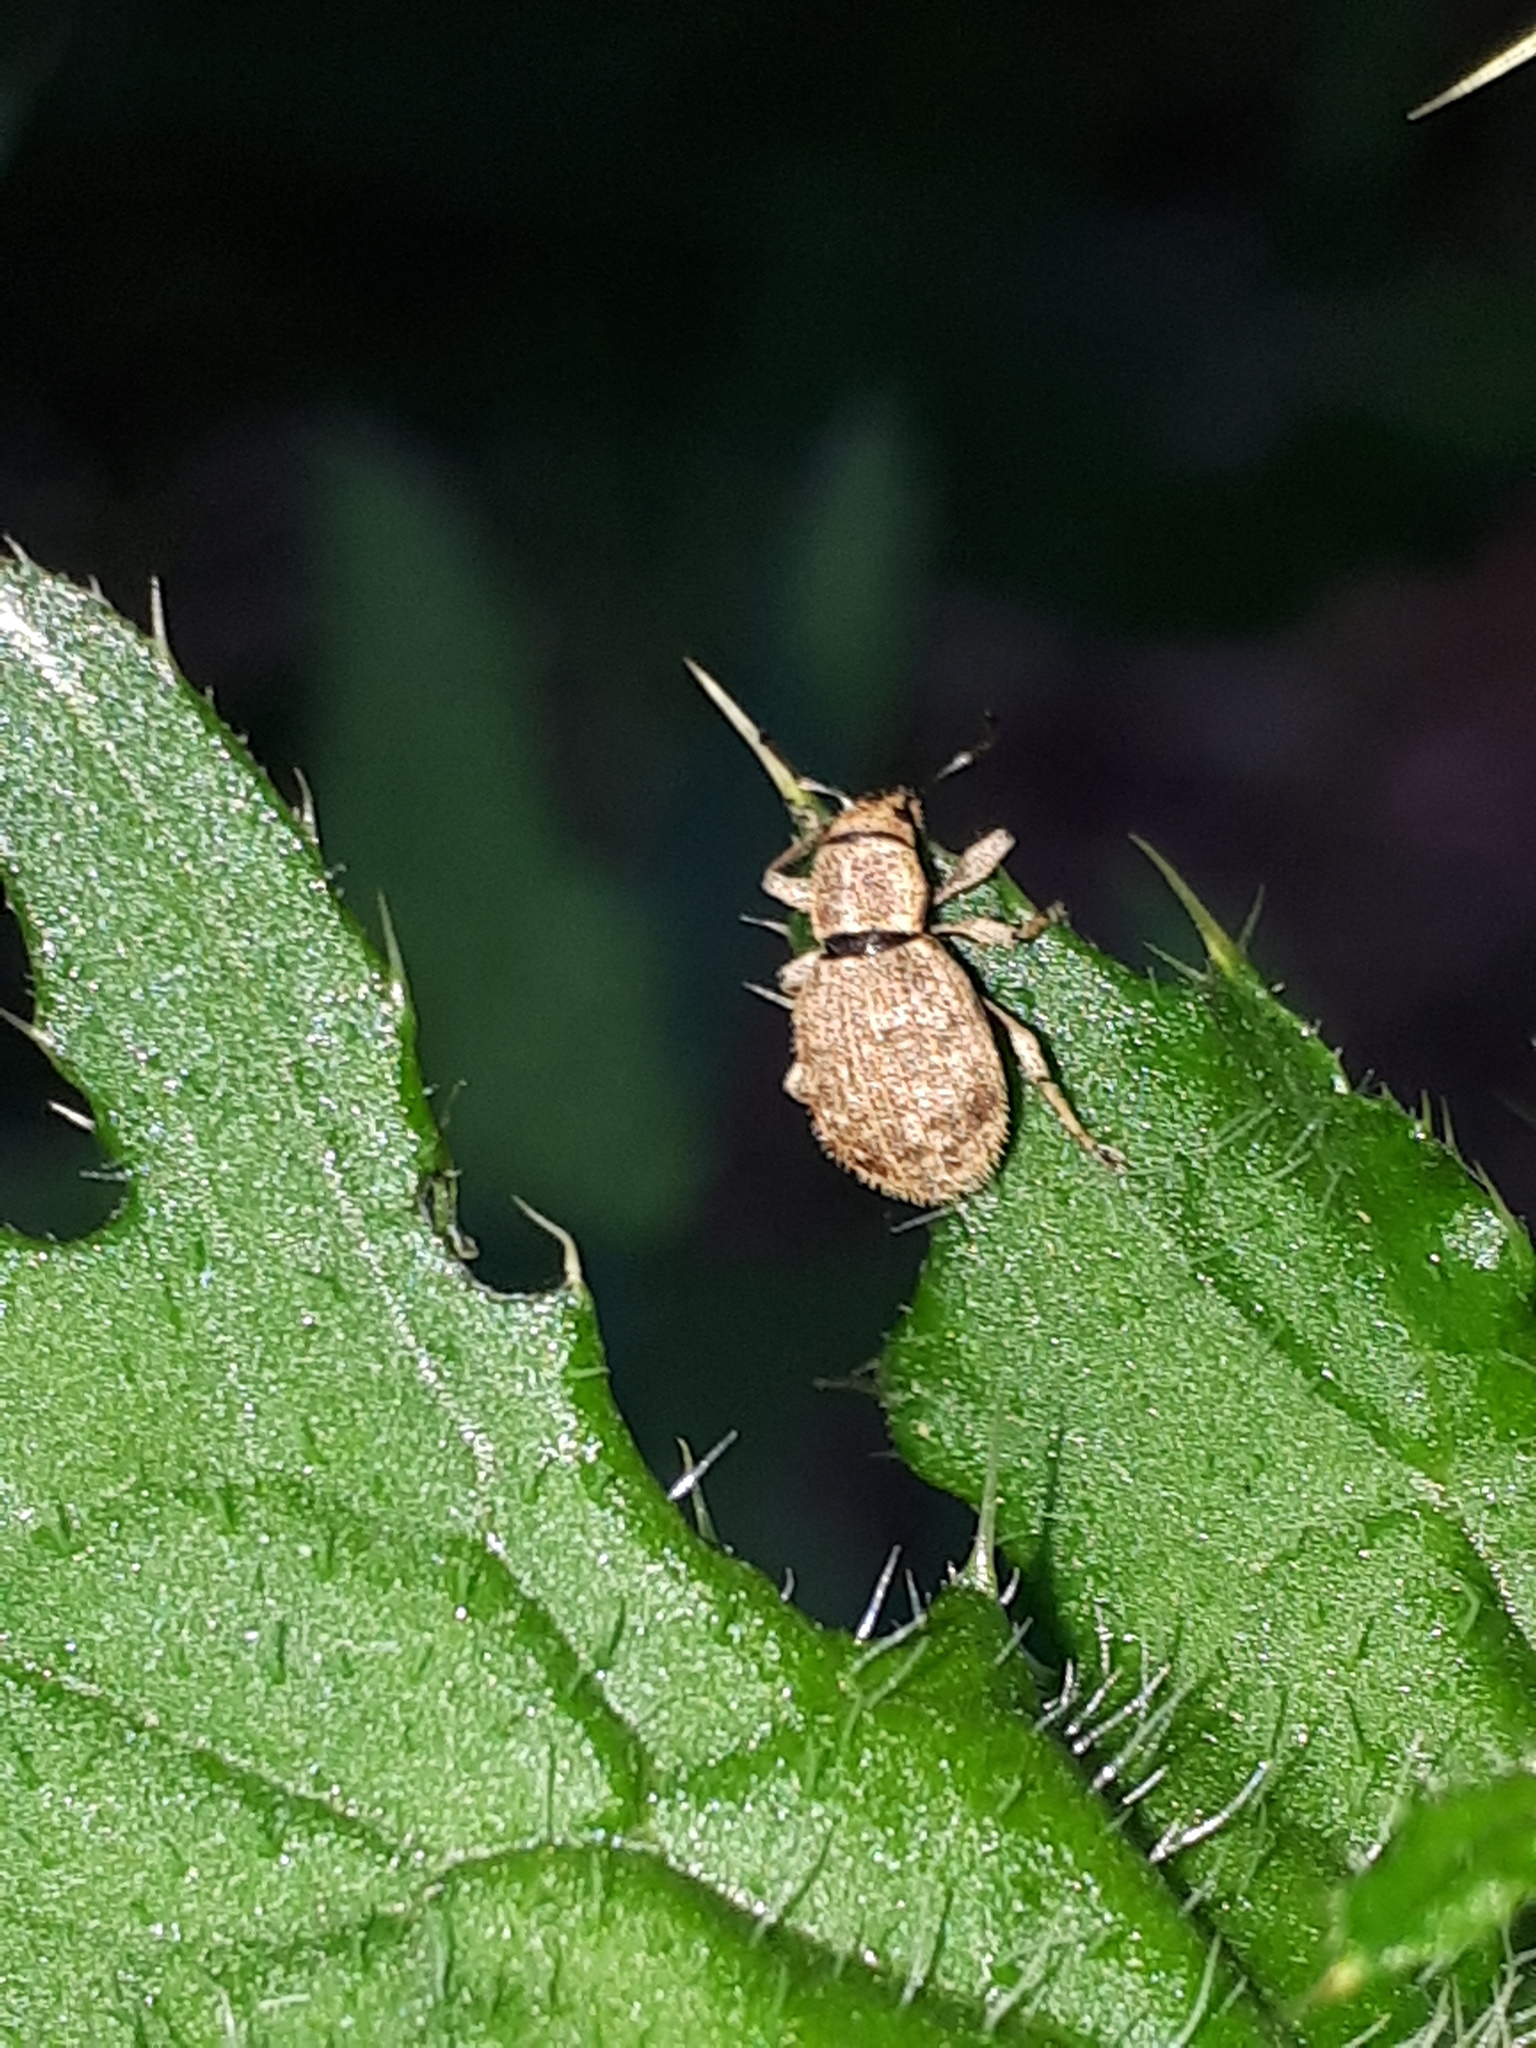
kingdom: Animalia
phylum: Arthropoda
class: Insecta
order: Coleoptera
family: Curculionidae
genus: Sciaphilus
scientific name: Sciaphilus asperatus
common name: Weevil
